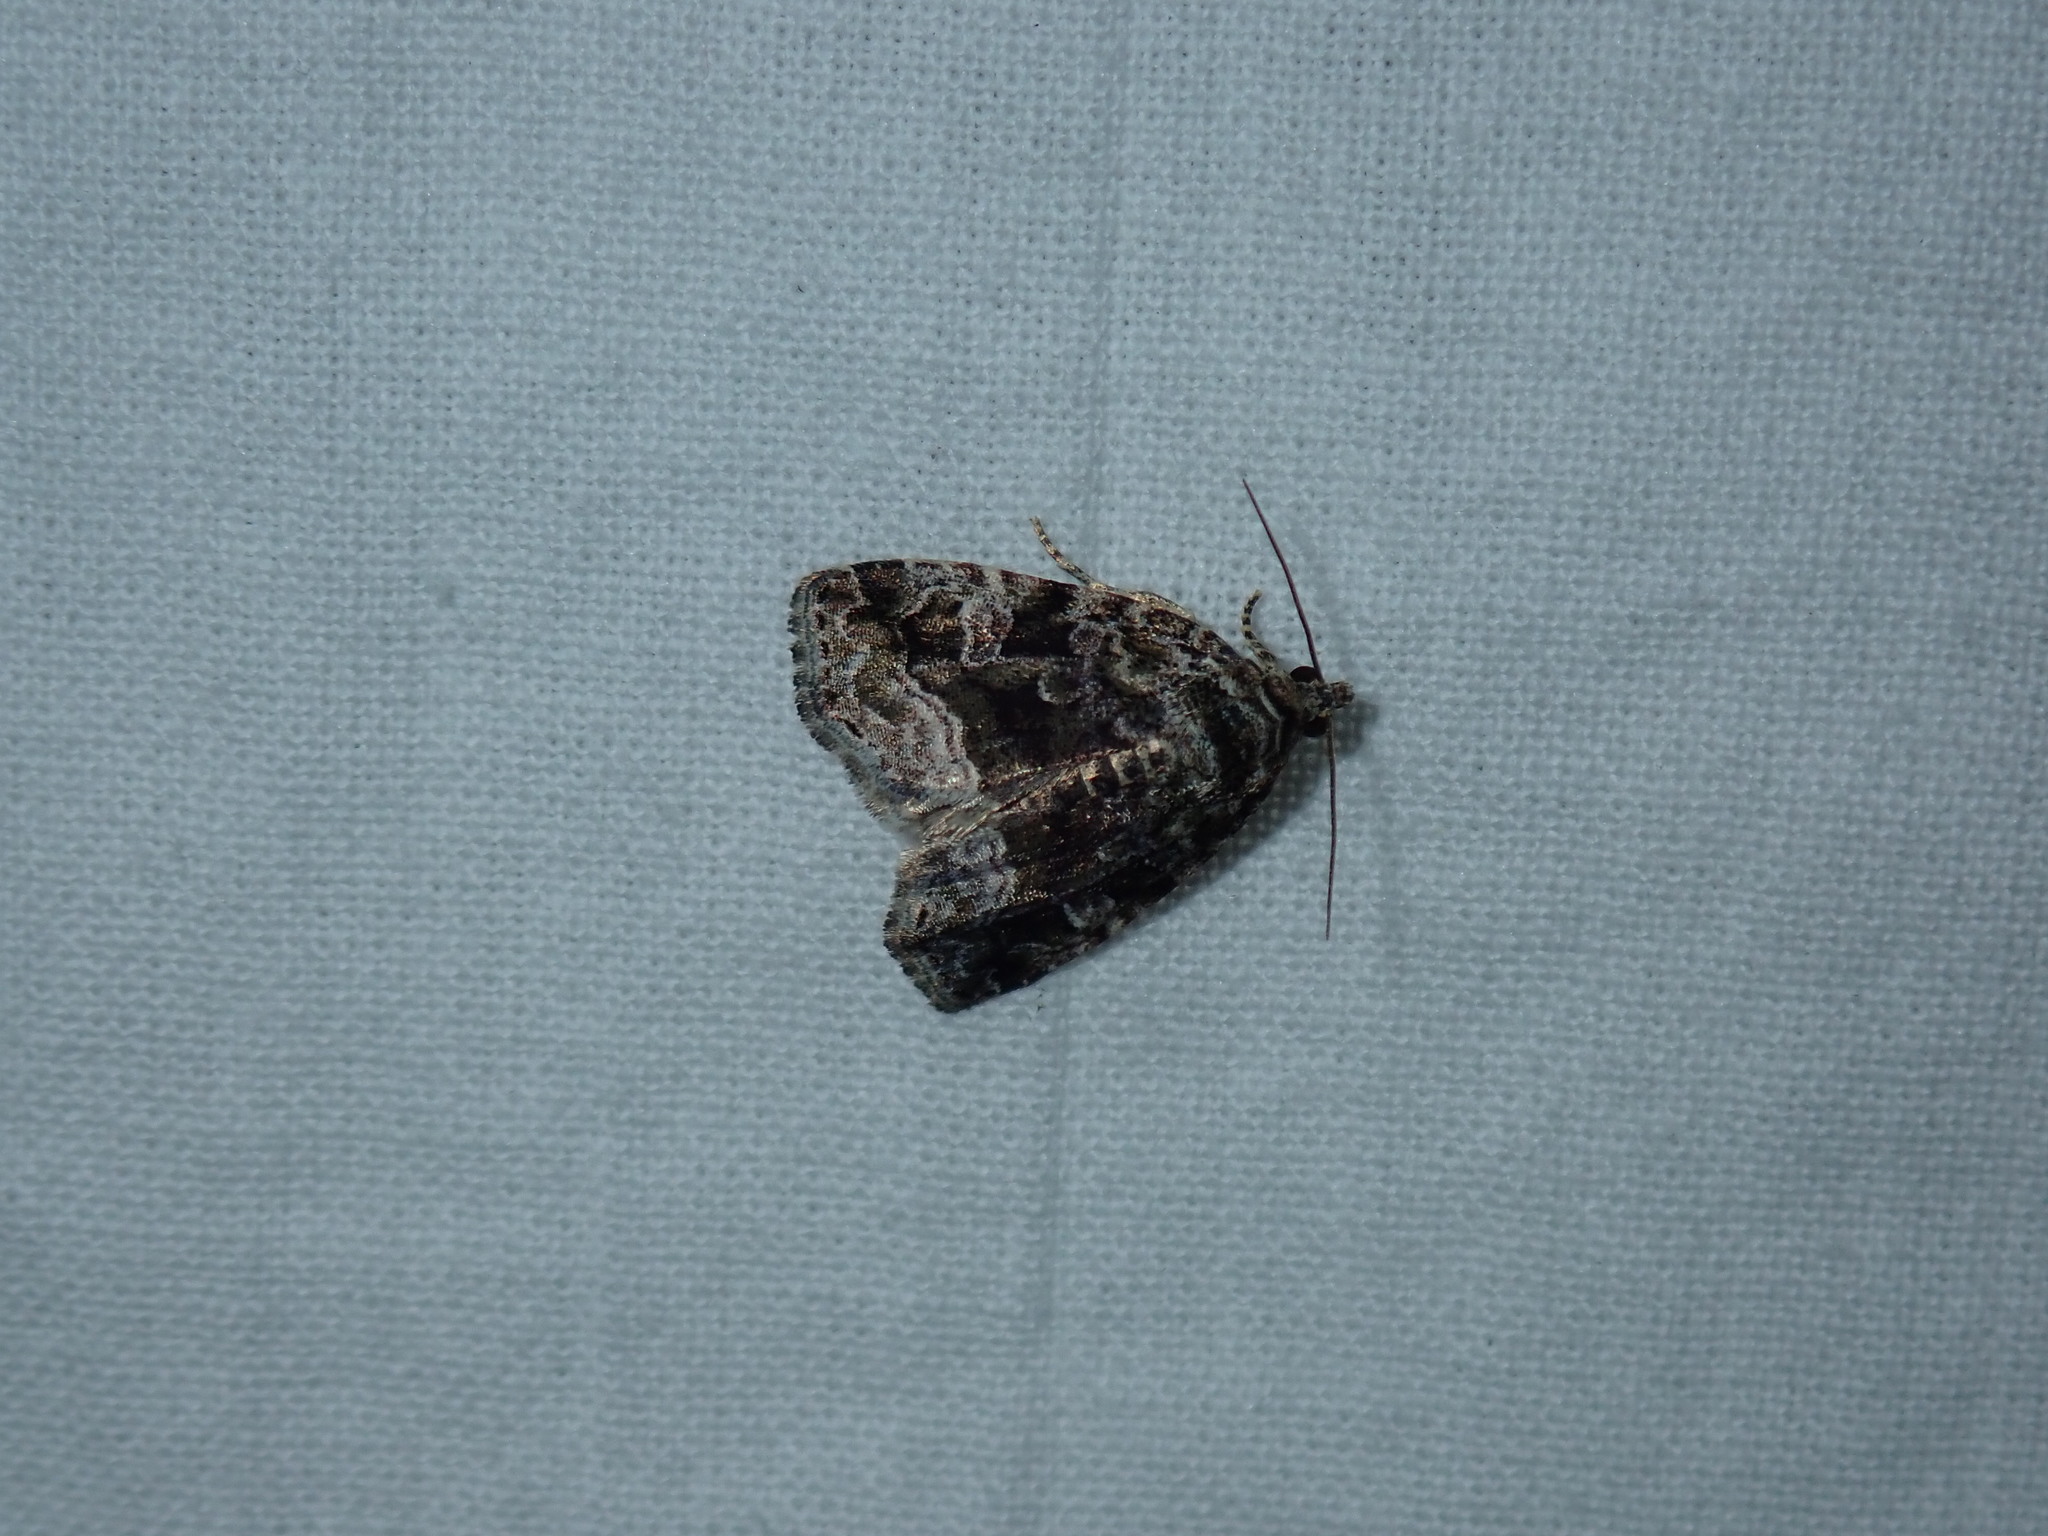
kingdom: Animalia
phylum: Arthropoda
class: Insecta
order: Lepidoptera
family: Noctuidae
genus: Protodeltote
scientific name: Protodeltote muscosula
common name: Large mossy glyph
